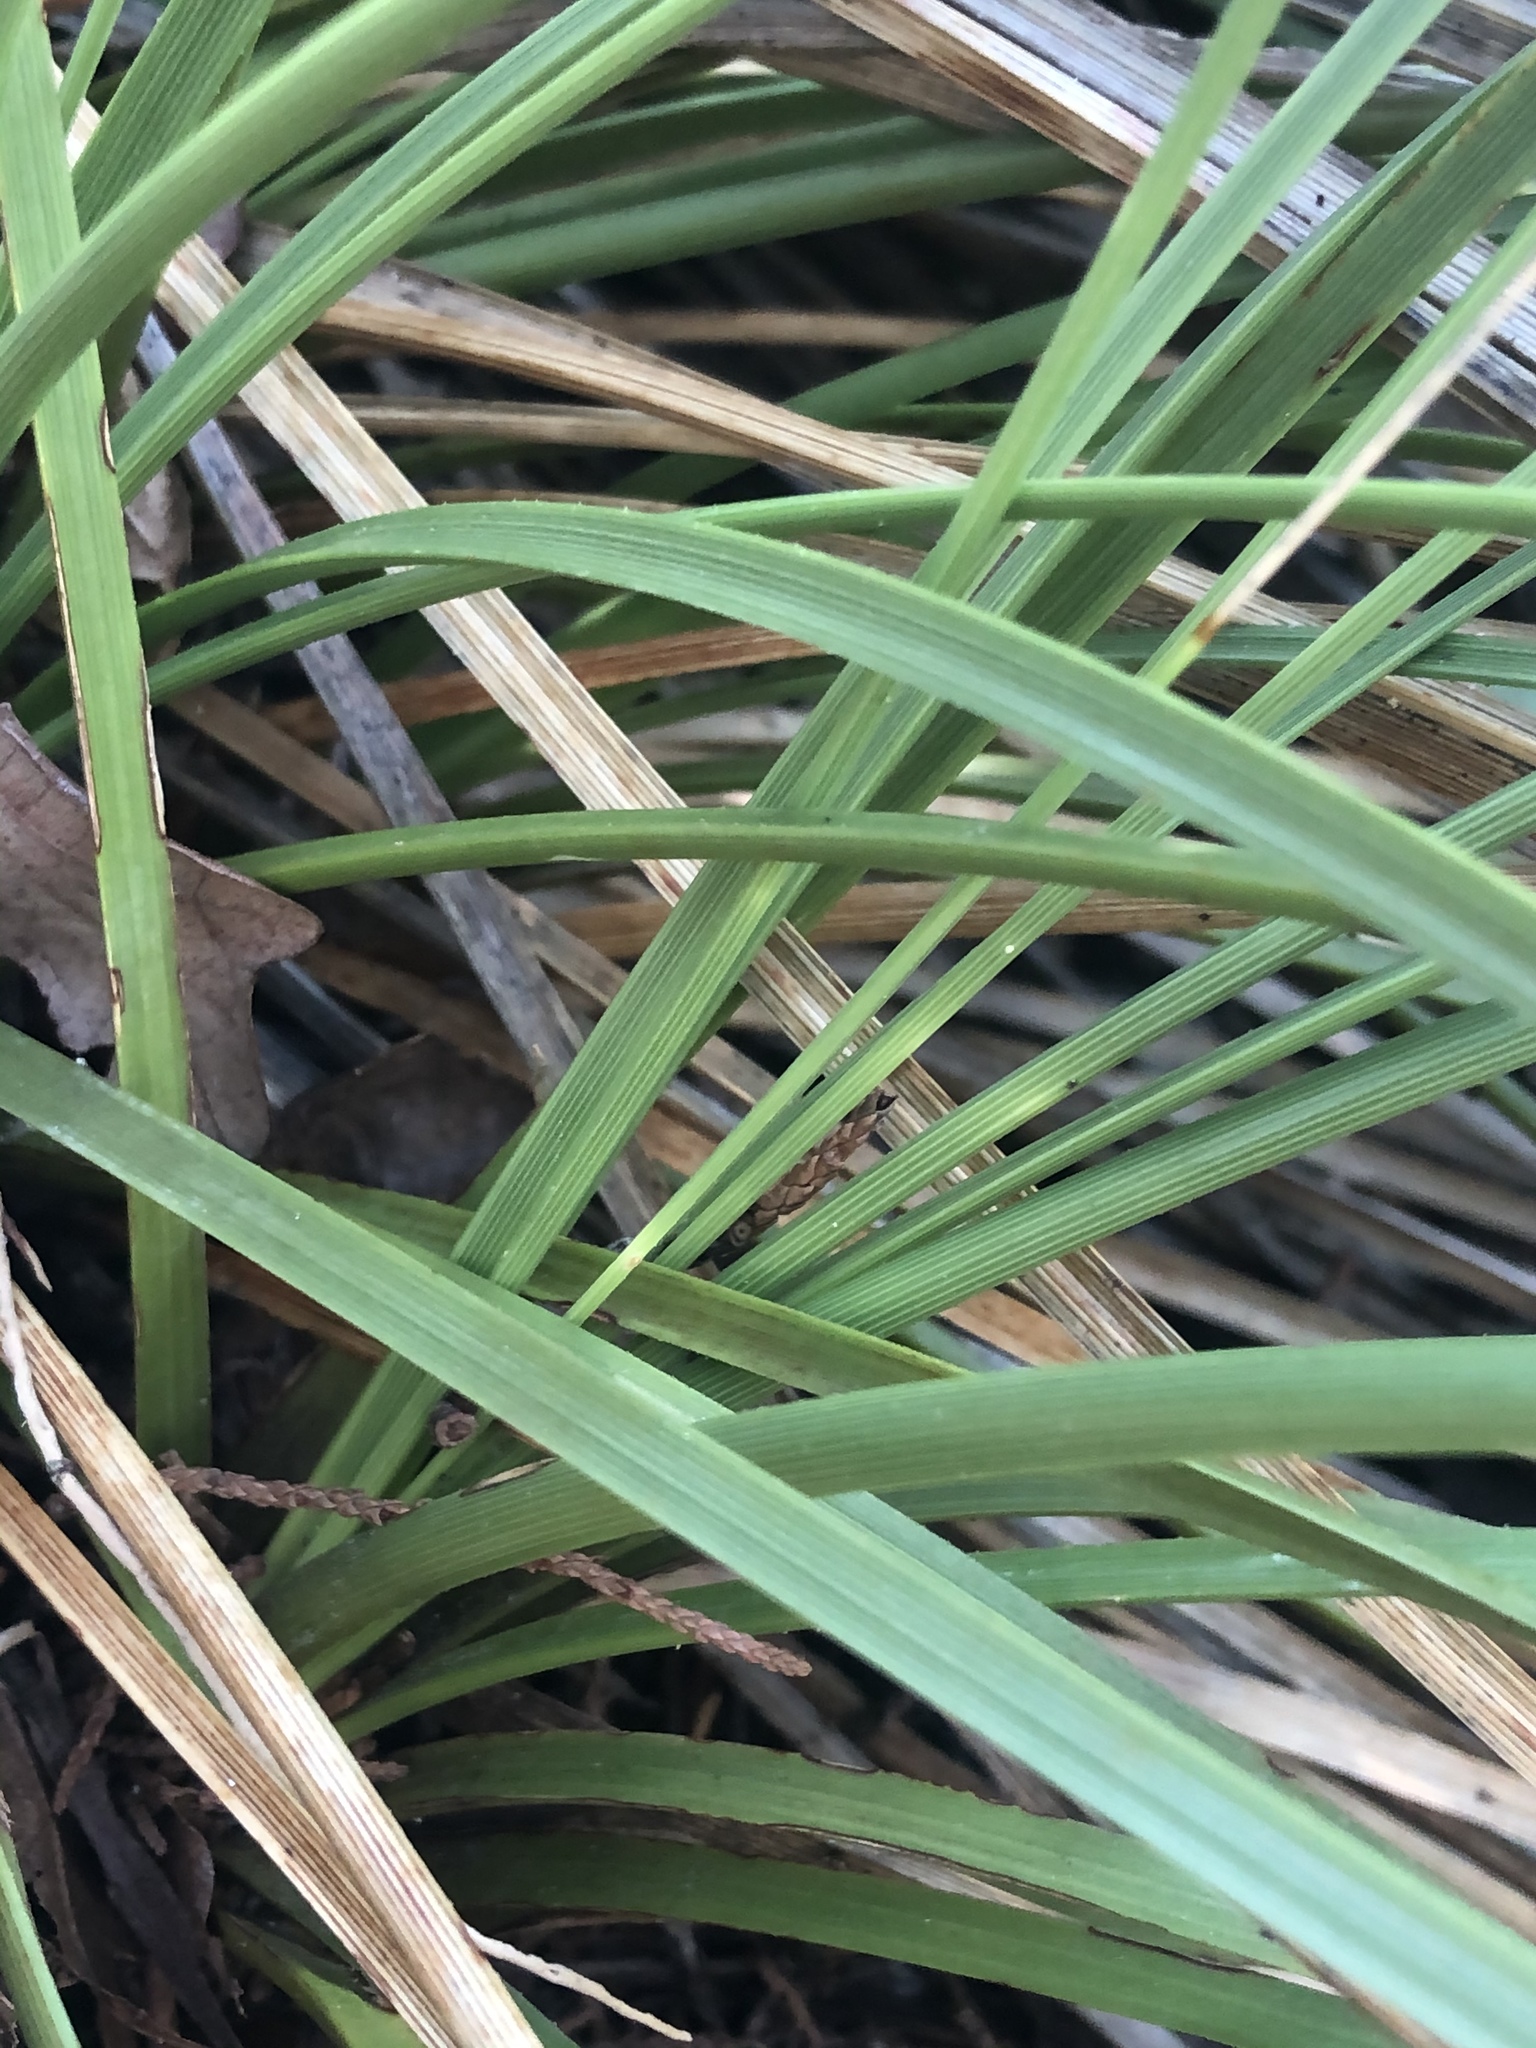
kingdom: Plantae
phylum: Tracheophyta
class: Liliopsida
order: Asparagales
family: Asparagaceae
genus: Nolina
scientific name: Nolina texana
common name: Texas sacahuiste
